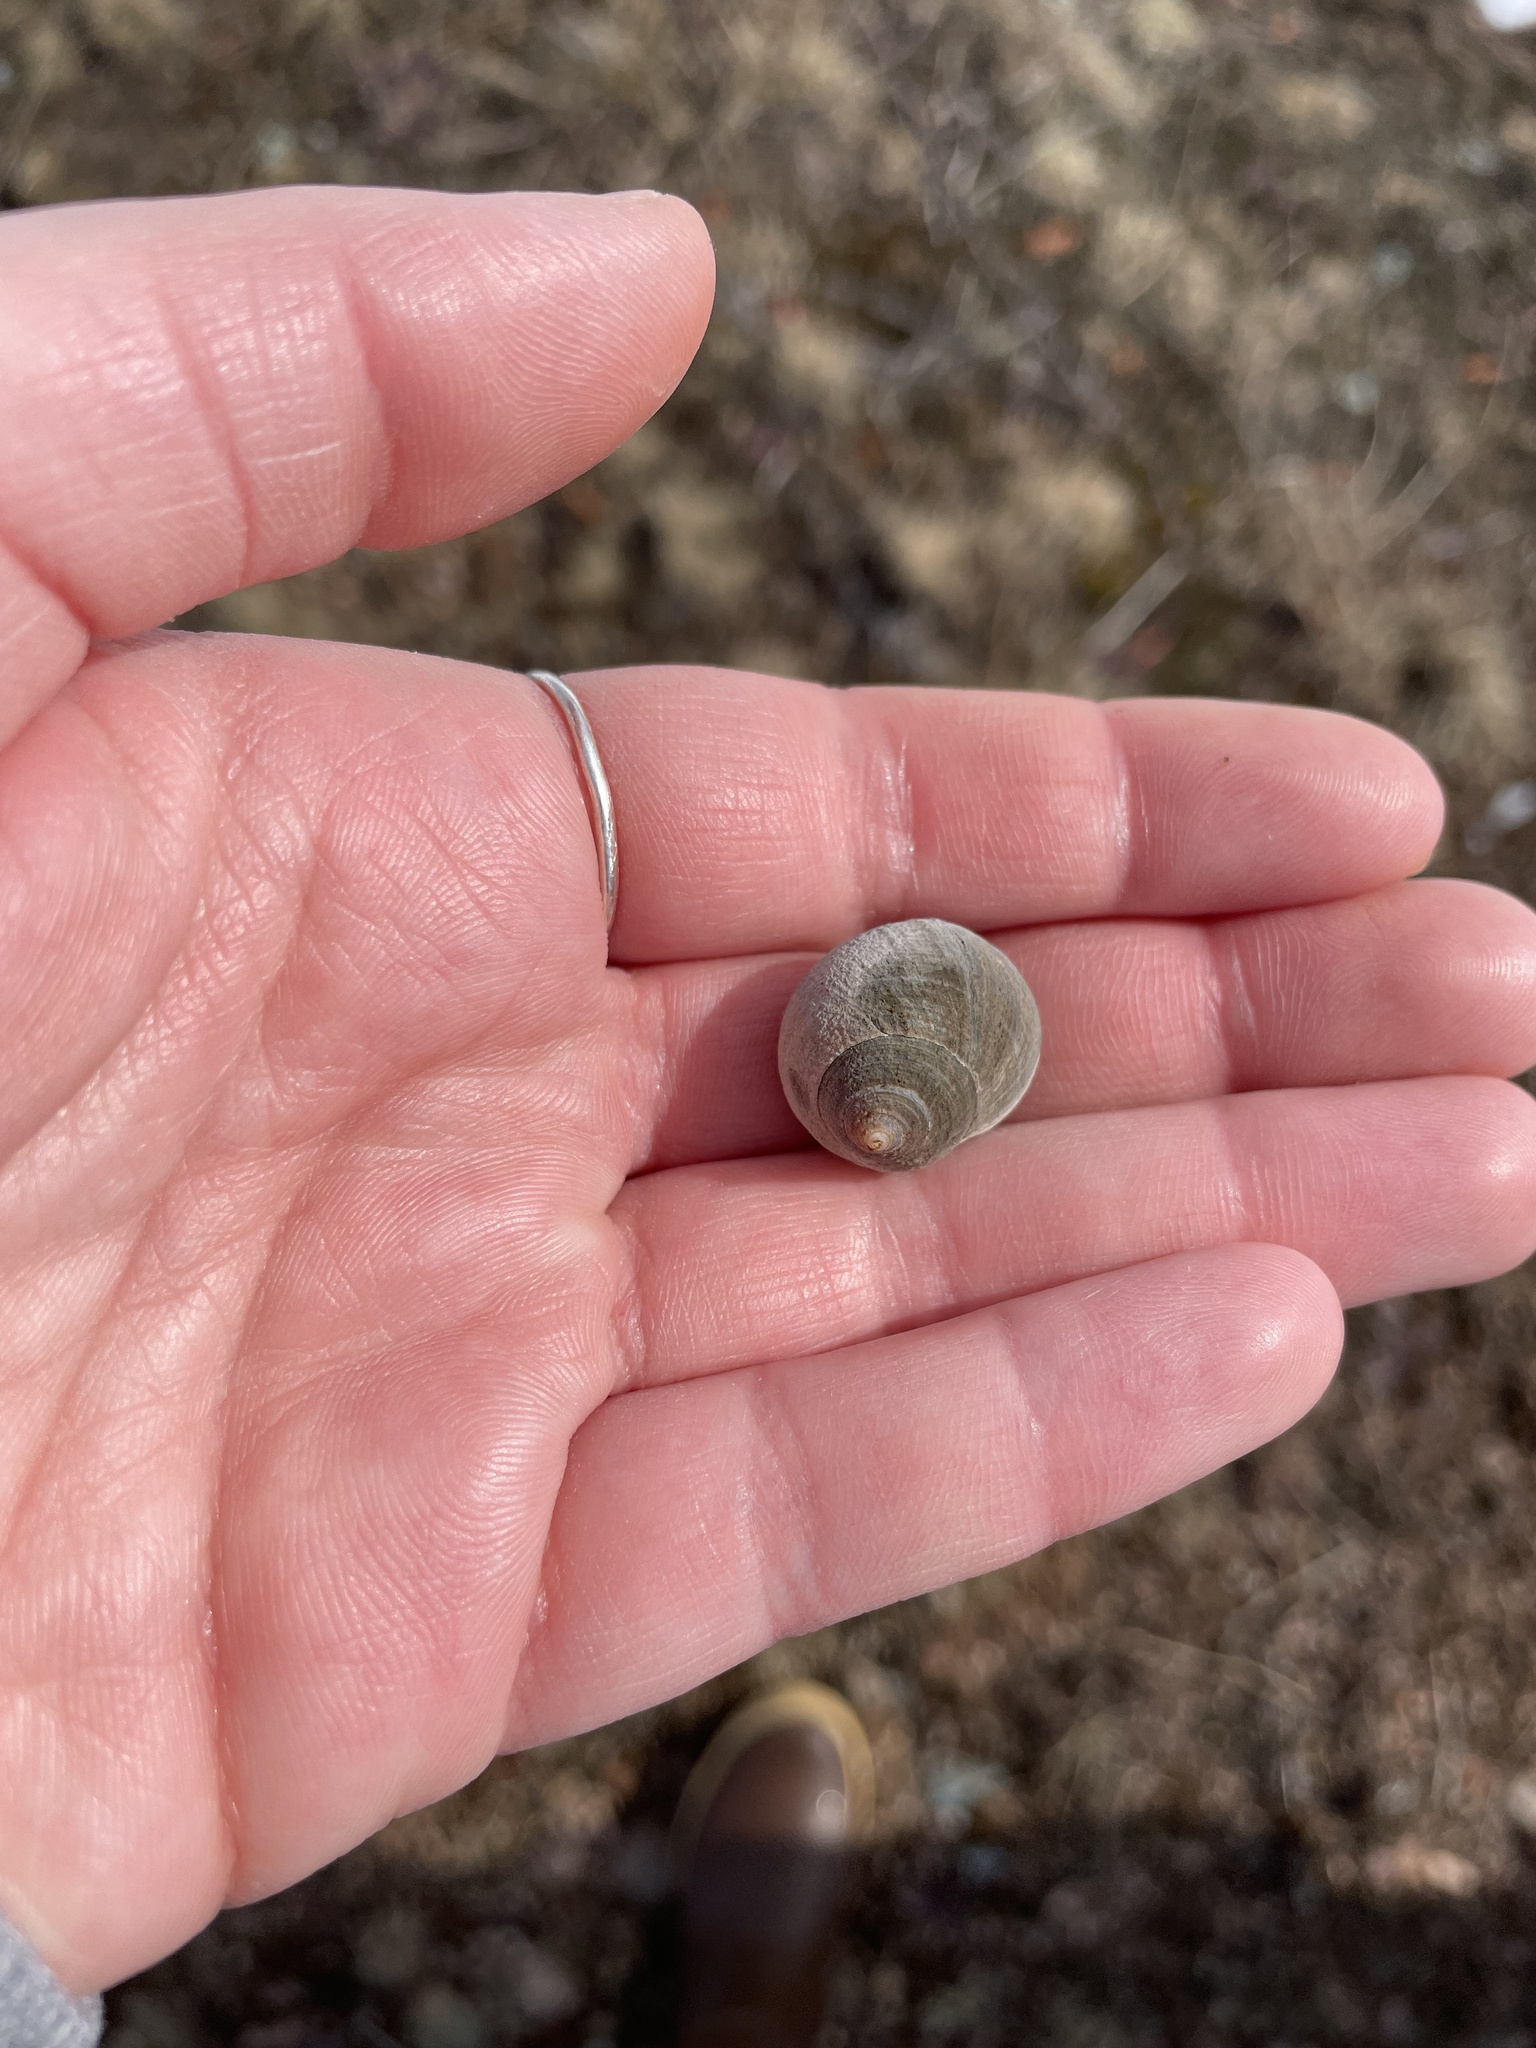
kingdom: Animalia
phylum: Mollusca
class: Gastropoda
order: Littorinimorpha
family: Littorinidae
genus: Littorina
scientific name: Littorina littorea
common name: Common periwinkle
